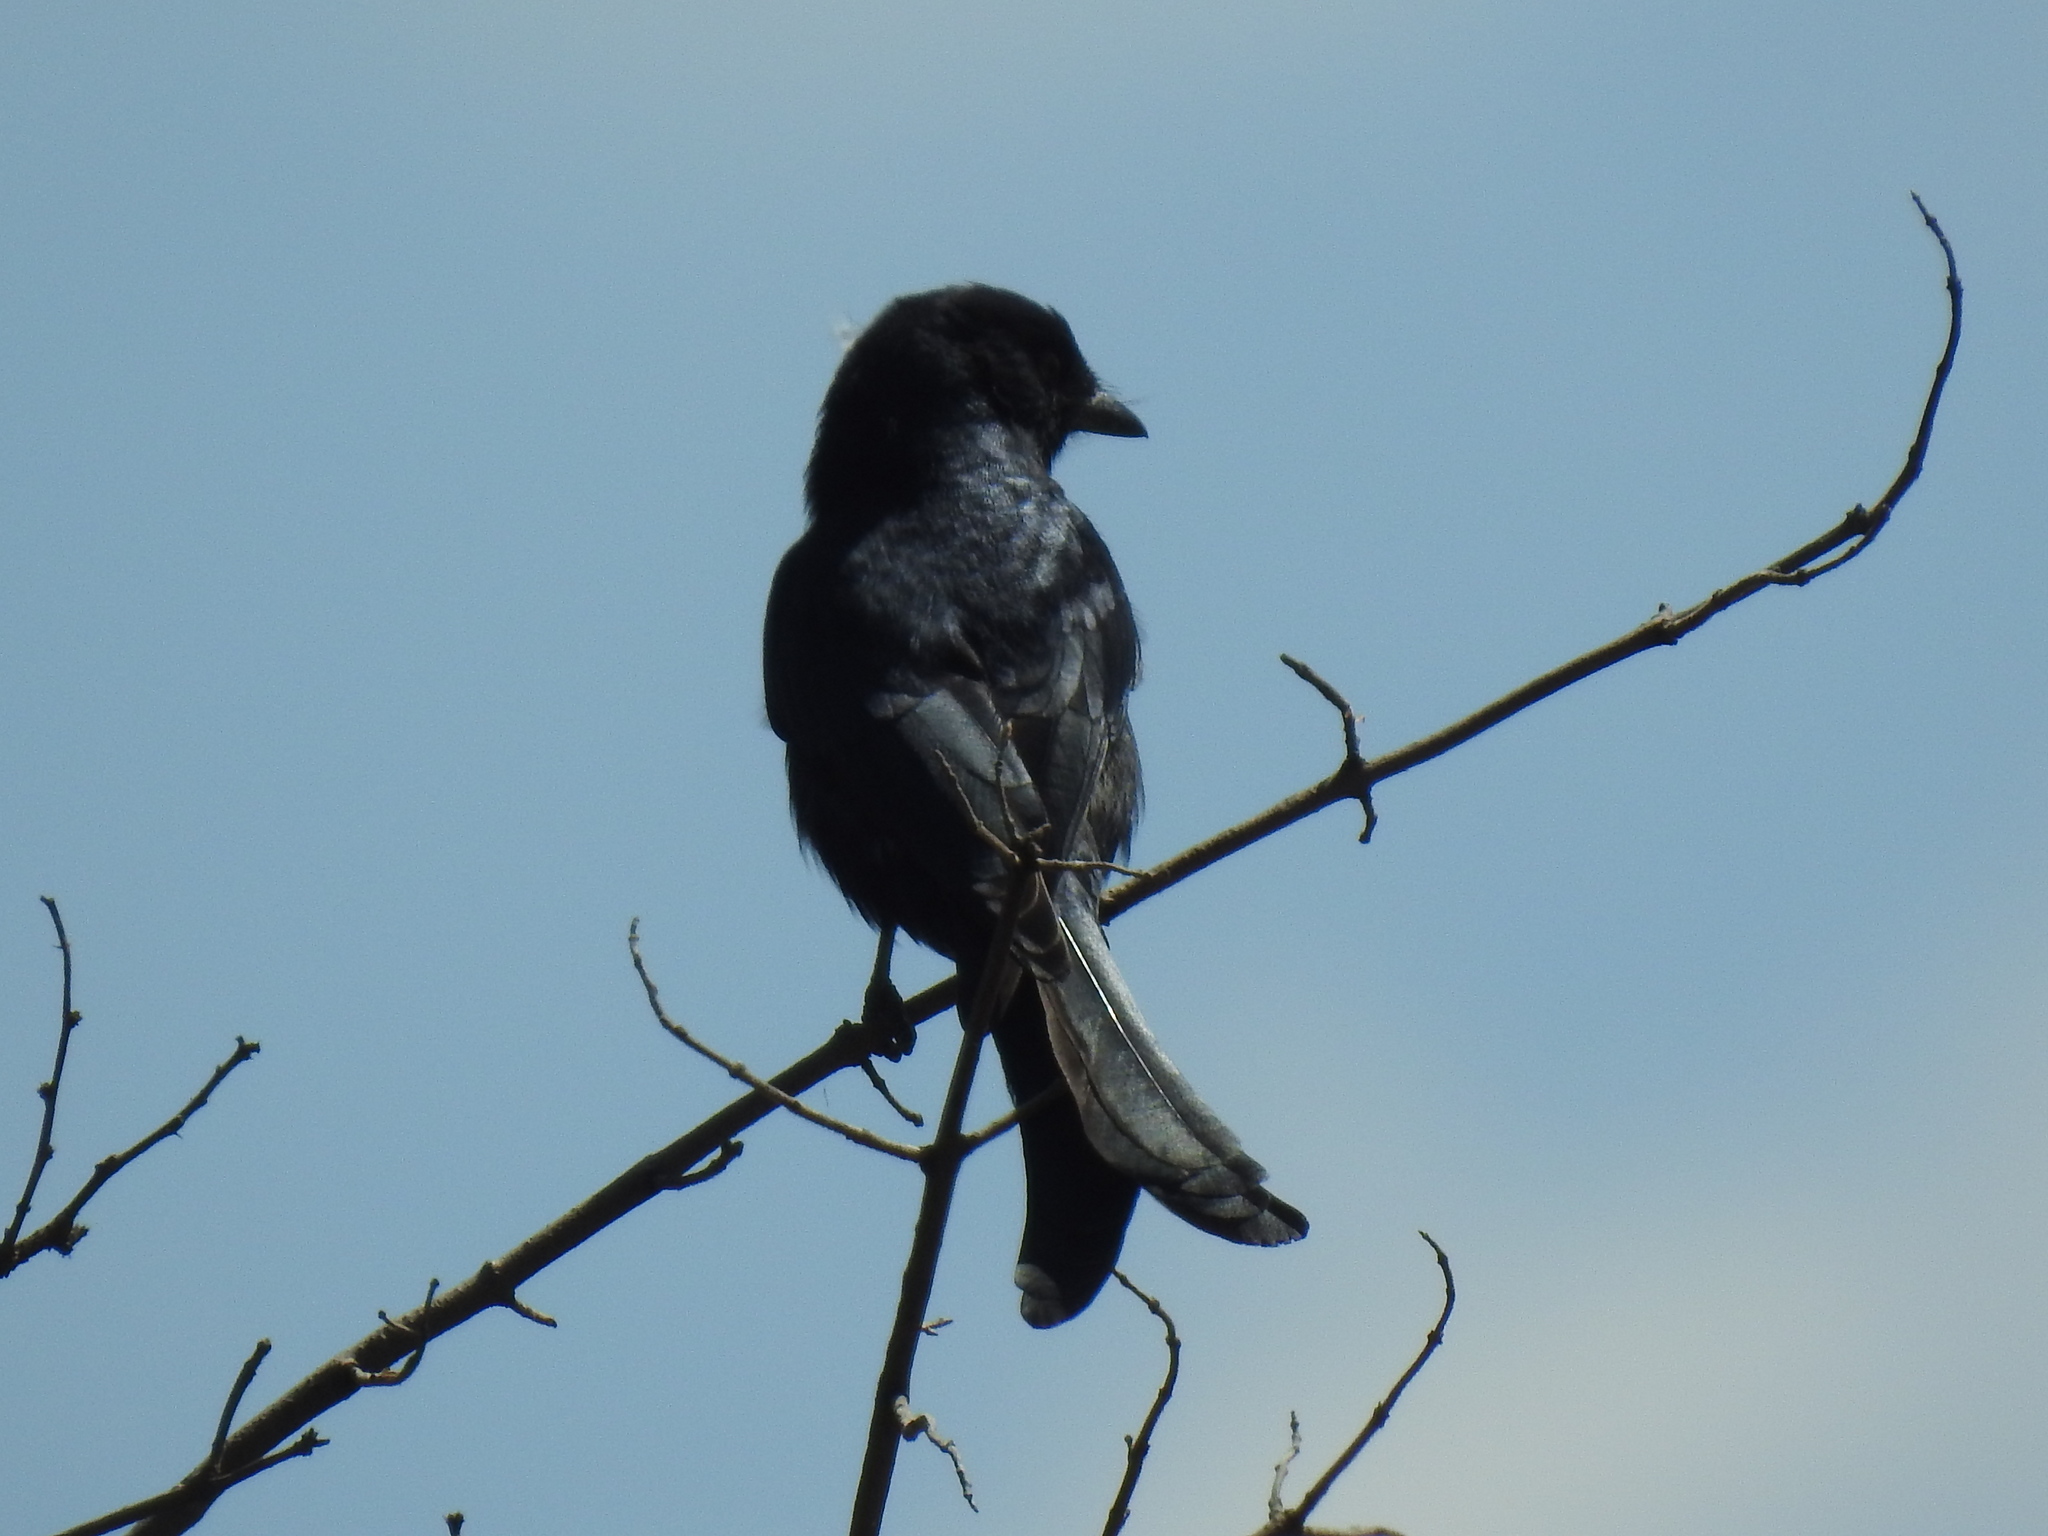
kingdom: Animalia
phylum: Chordata
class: Aves
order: Passeriformes
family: Dicruridae
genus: Dicrurus
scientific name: Dicrurus adsimilis
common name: Fork-tailed drongo
